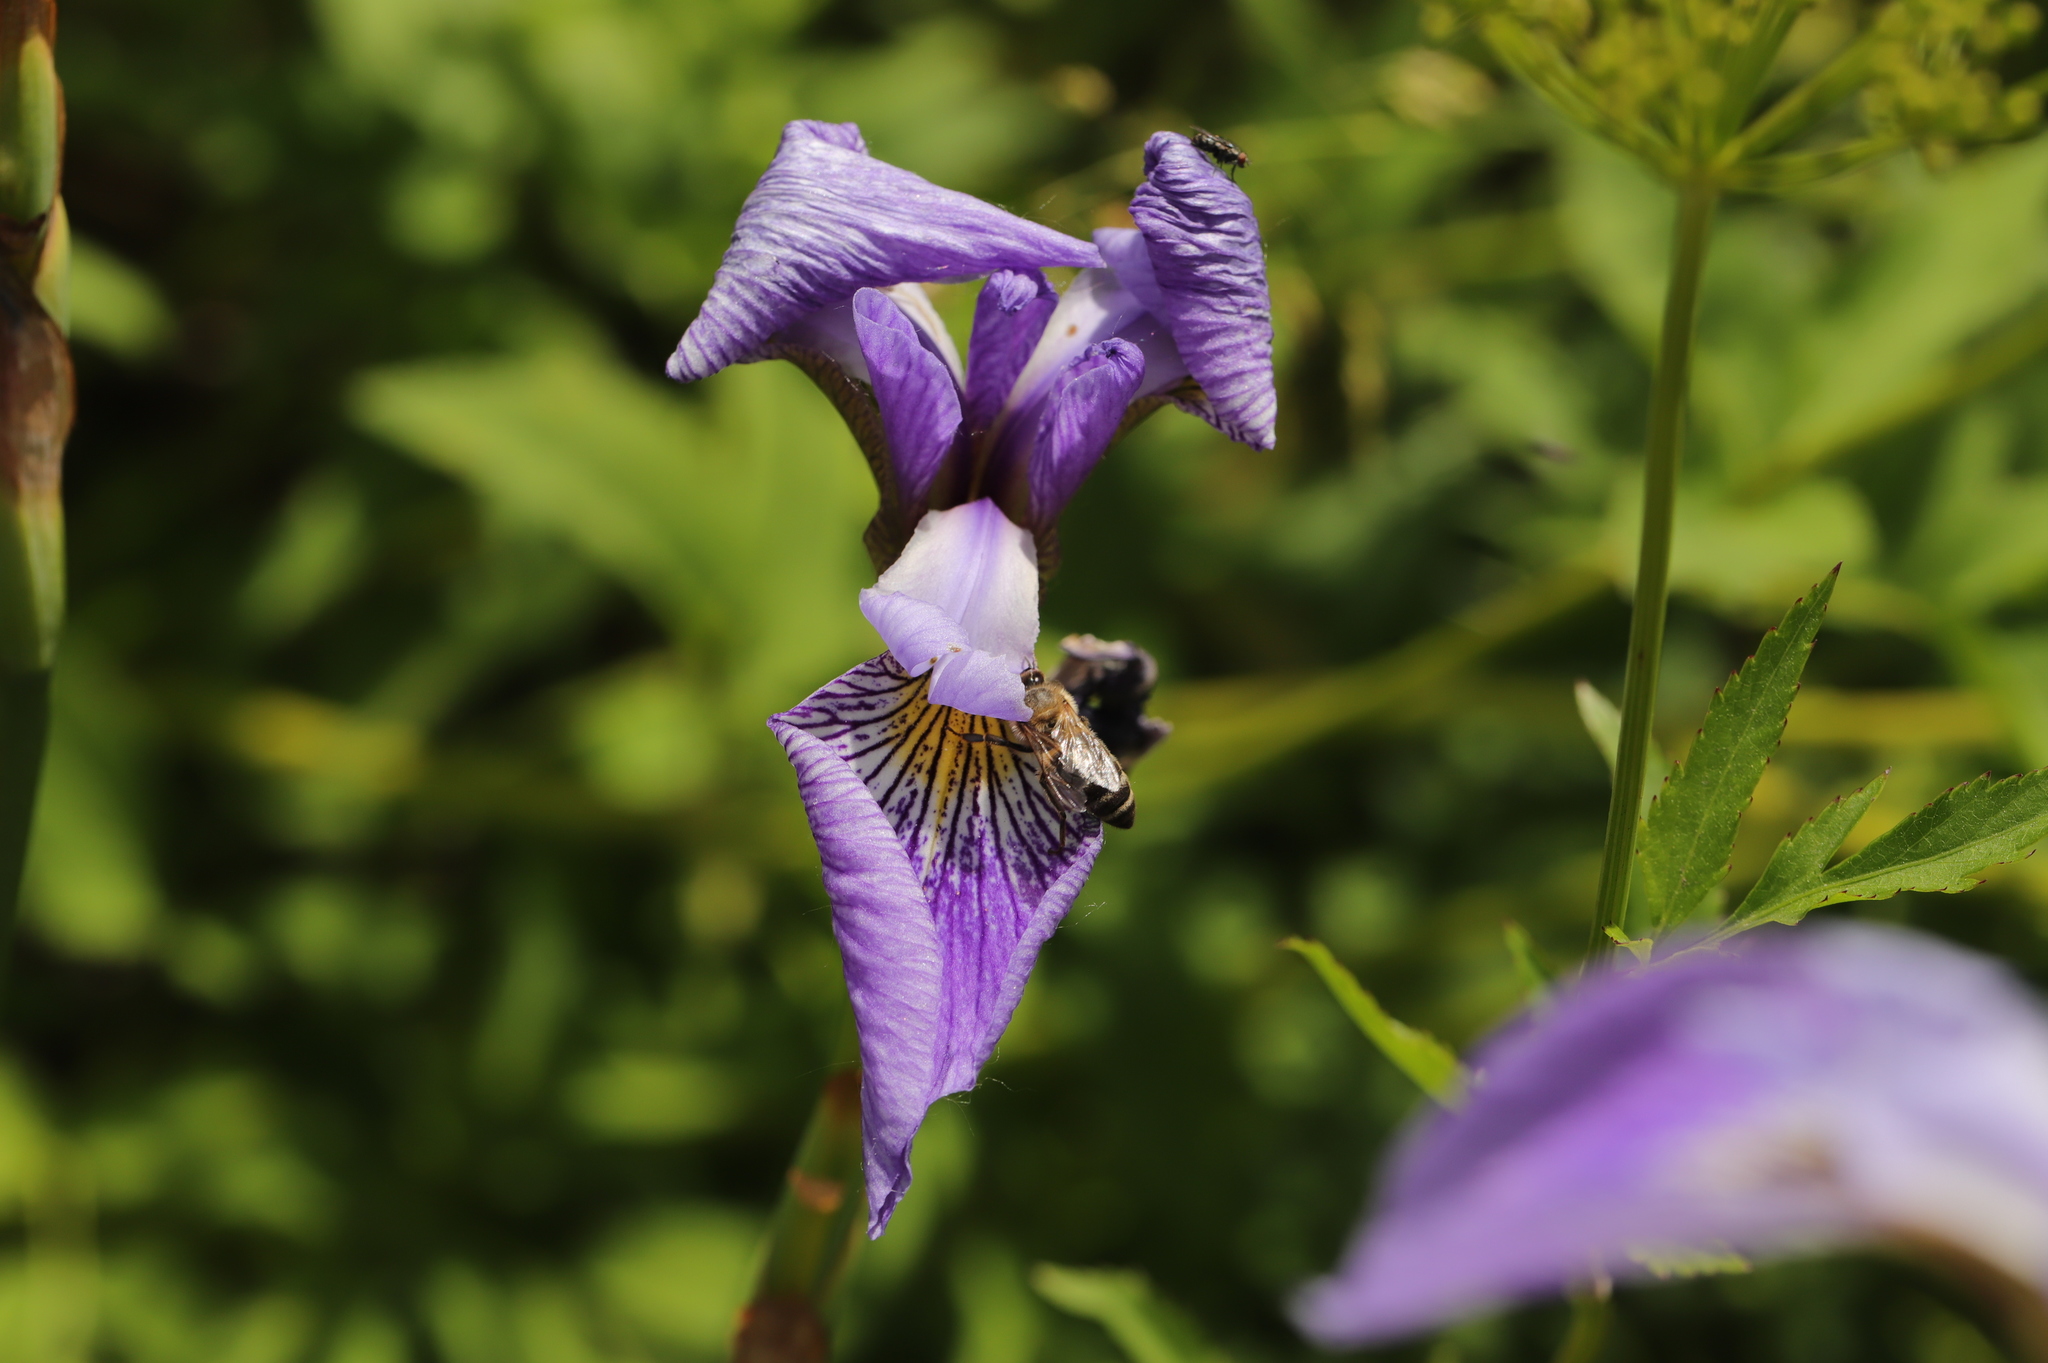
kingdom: Animalia
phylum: Arthropoda
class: Insecta
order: Hymenoptera
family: Apidae
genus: Apis
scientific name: Apis mellifera
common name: Honey bee
